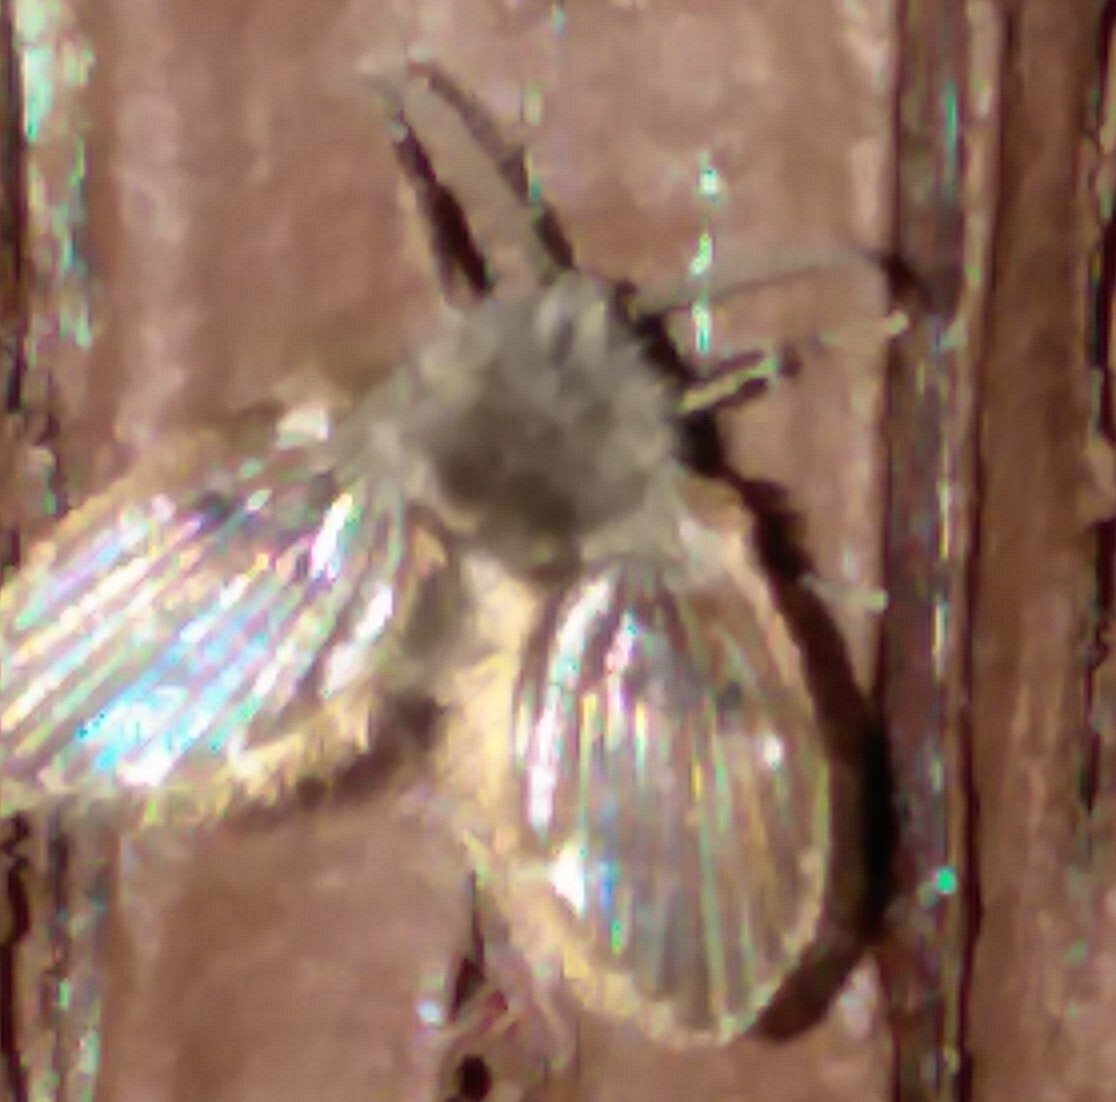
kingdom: Animalia
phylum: Arthropoda
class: Insecta
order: Diptera
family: Psychodidae
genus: Clogmia
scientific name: Clogmia albipunctatus
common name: White-spotted moth fly
